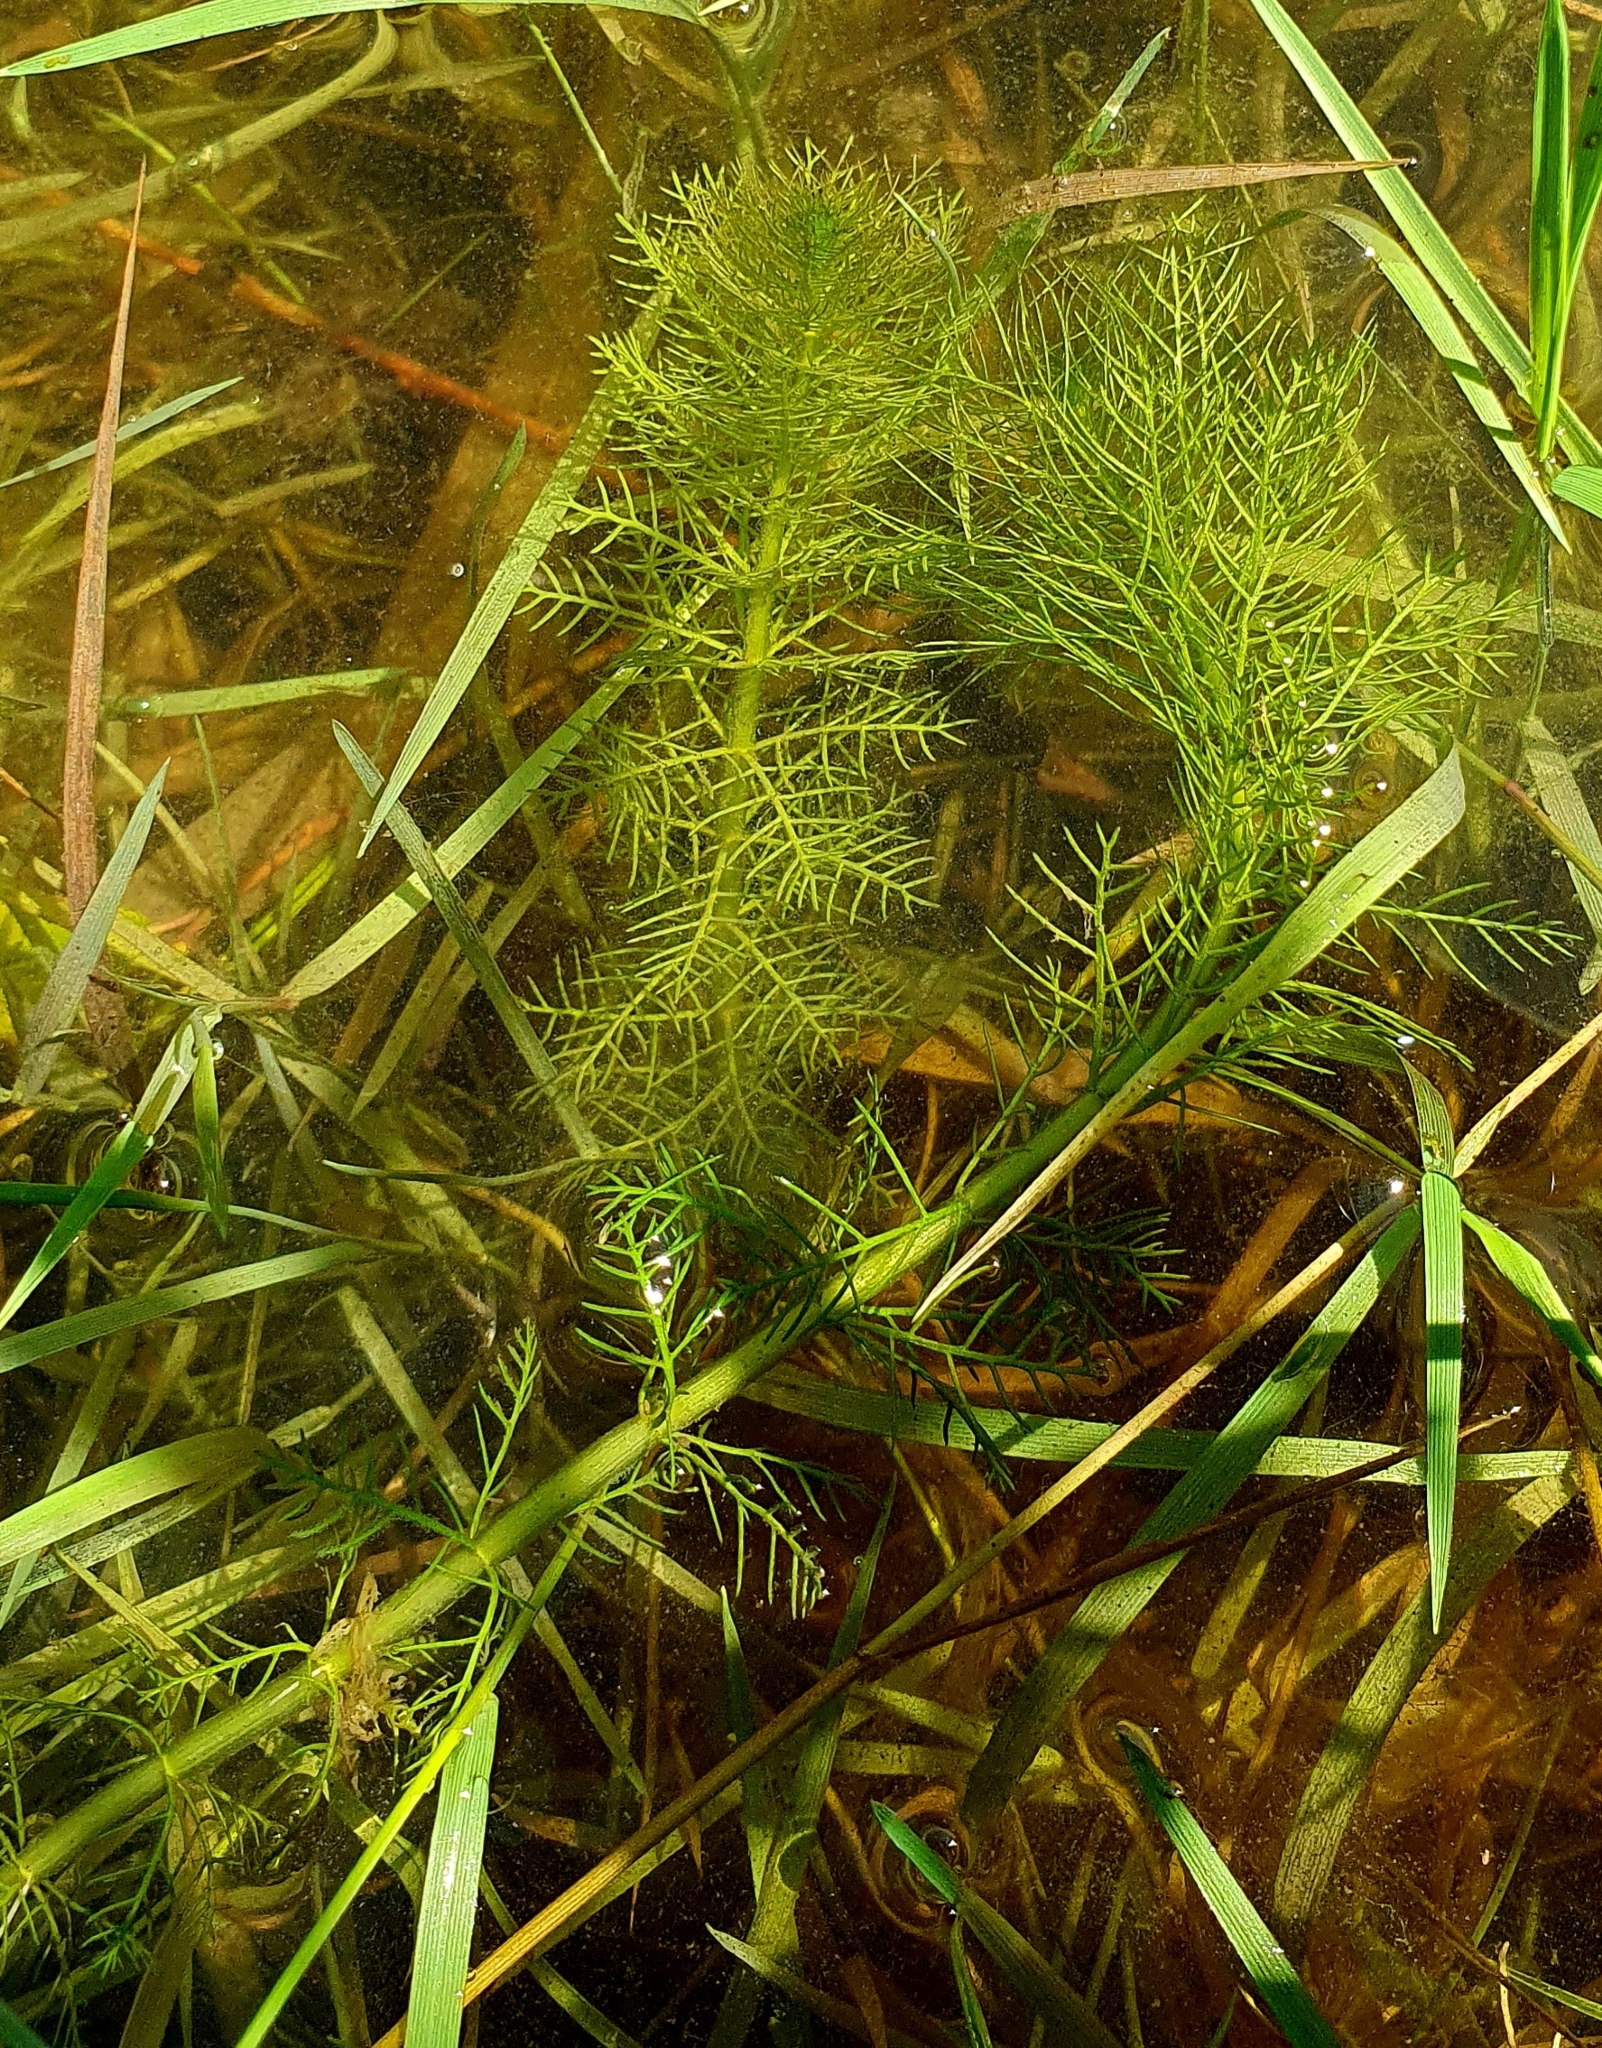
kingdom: Plantae
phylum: Tracheophyta
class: Magnoliopsida
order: Saxifragales
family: Haloragaceae
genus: Myriophyllum
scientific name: Myriophyllum verticillatum
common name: Whorled water-milfoil
